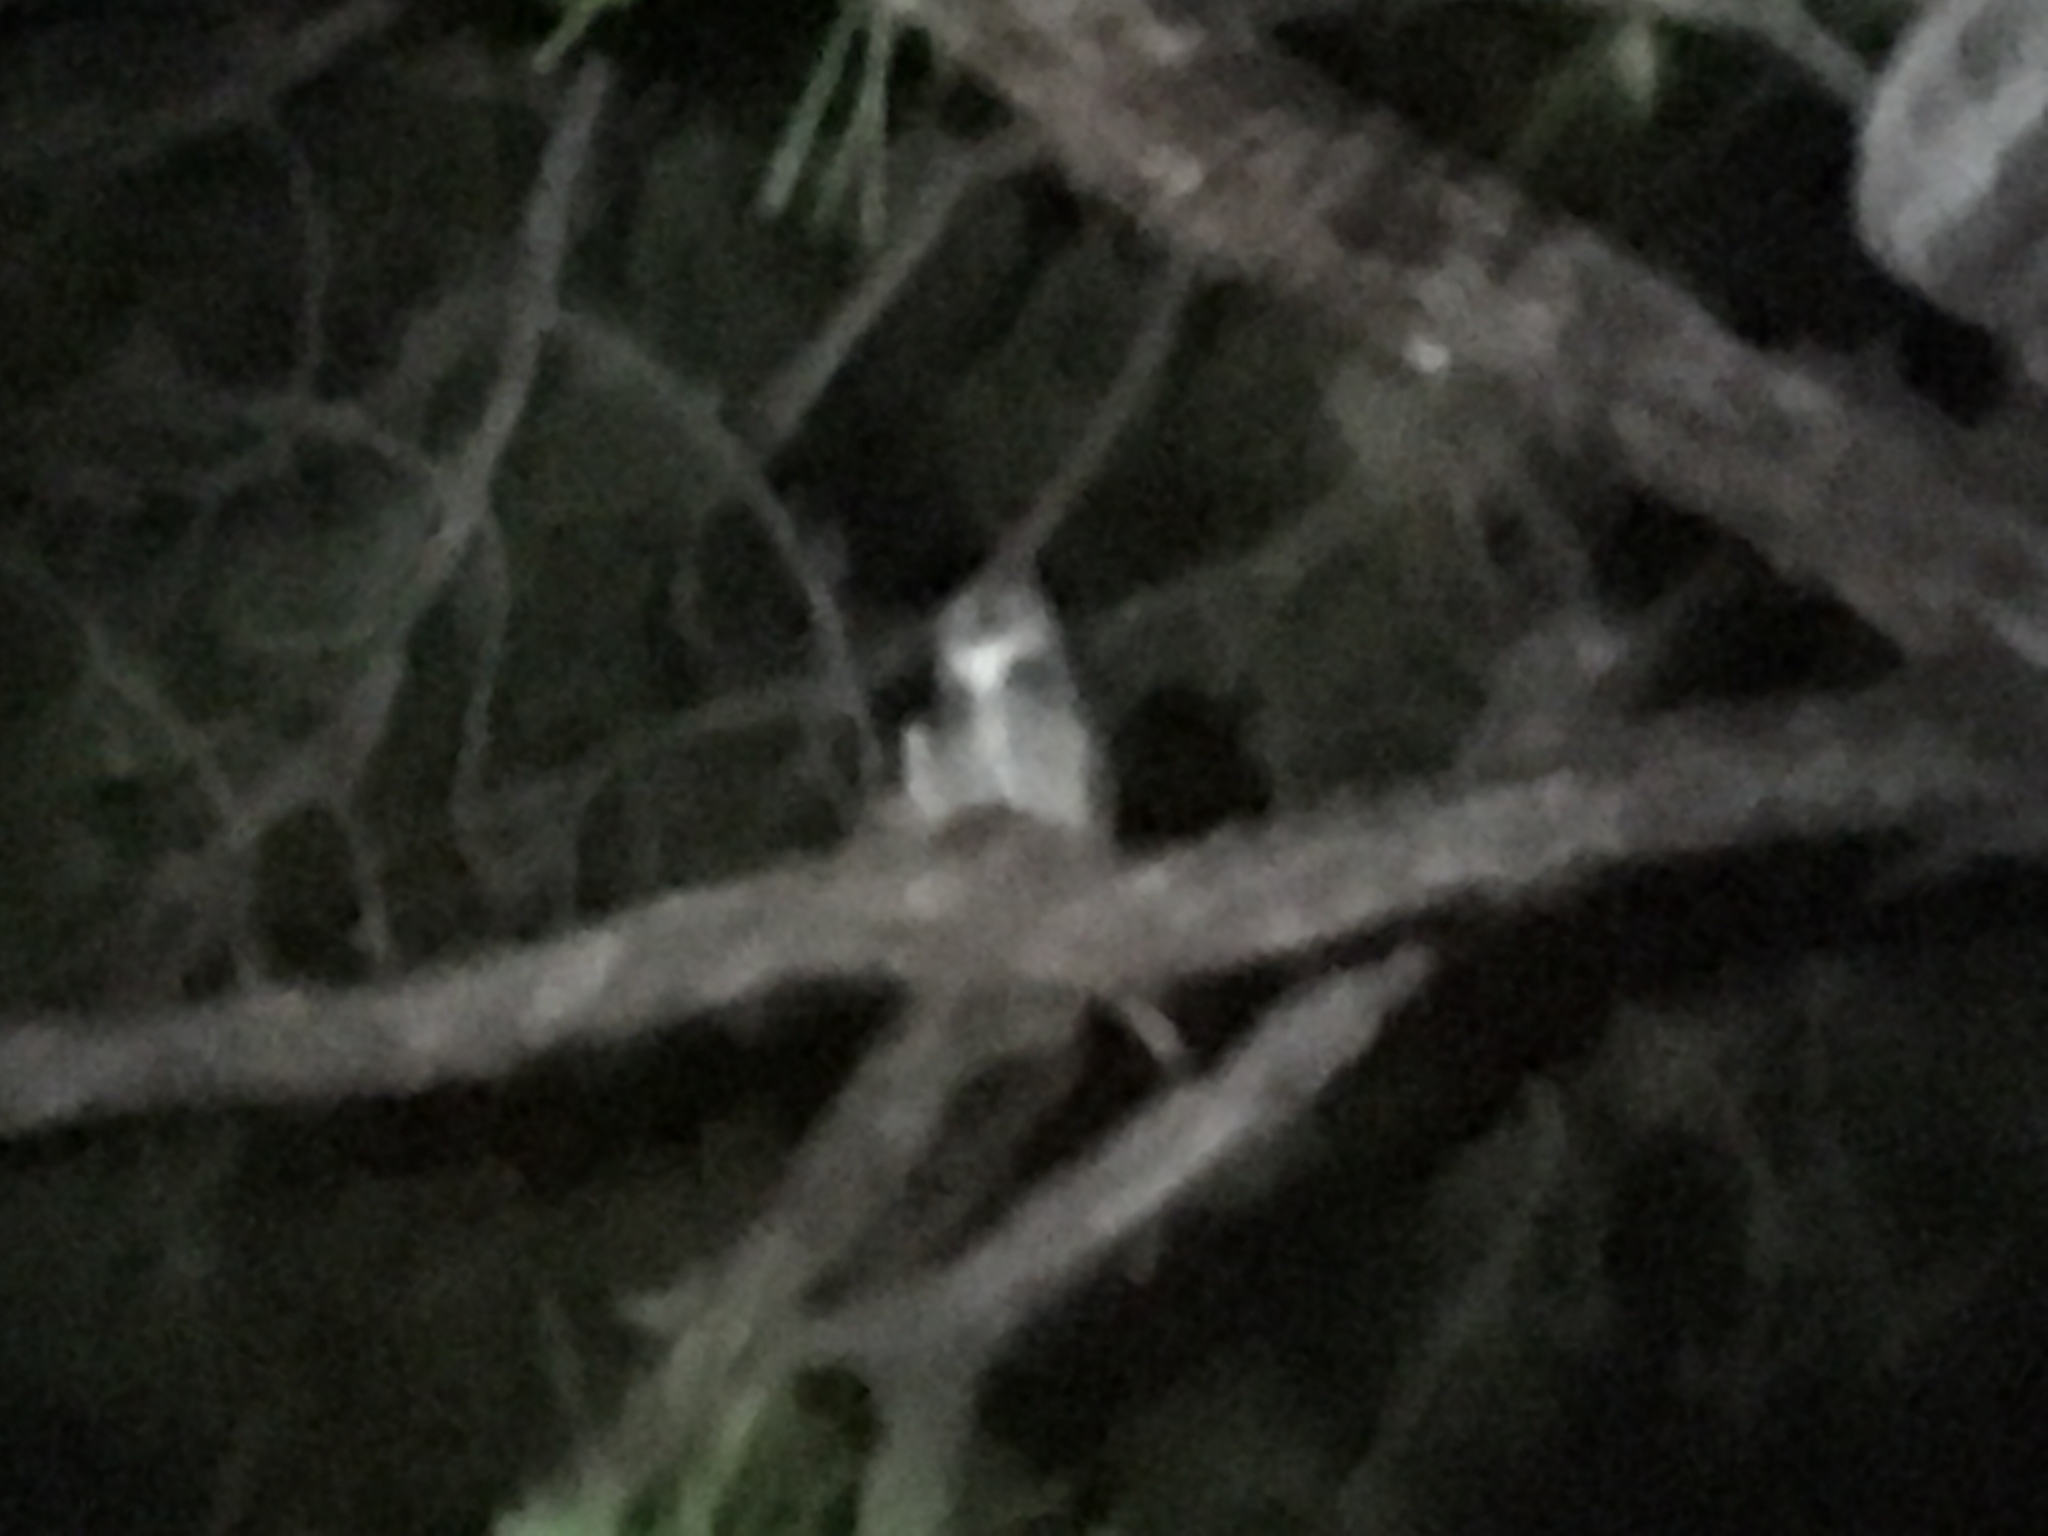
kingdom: Animalia
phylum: Chordata
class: Aves
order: Strigiformes
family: Strigidae
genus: Bubo
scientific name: Bubo virginianus
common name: Great horned owl
